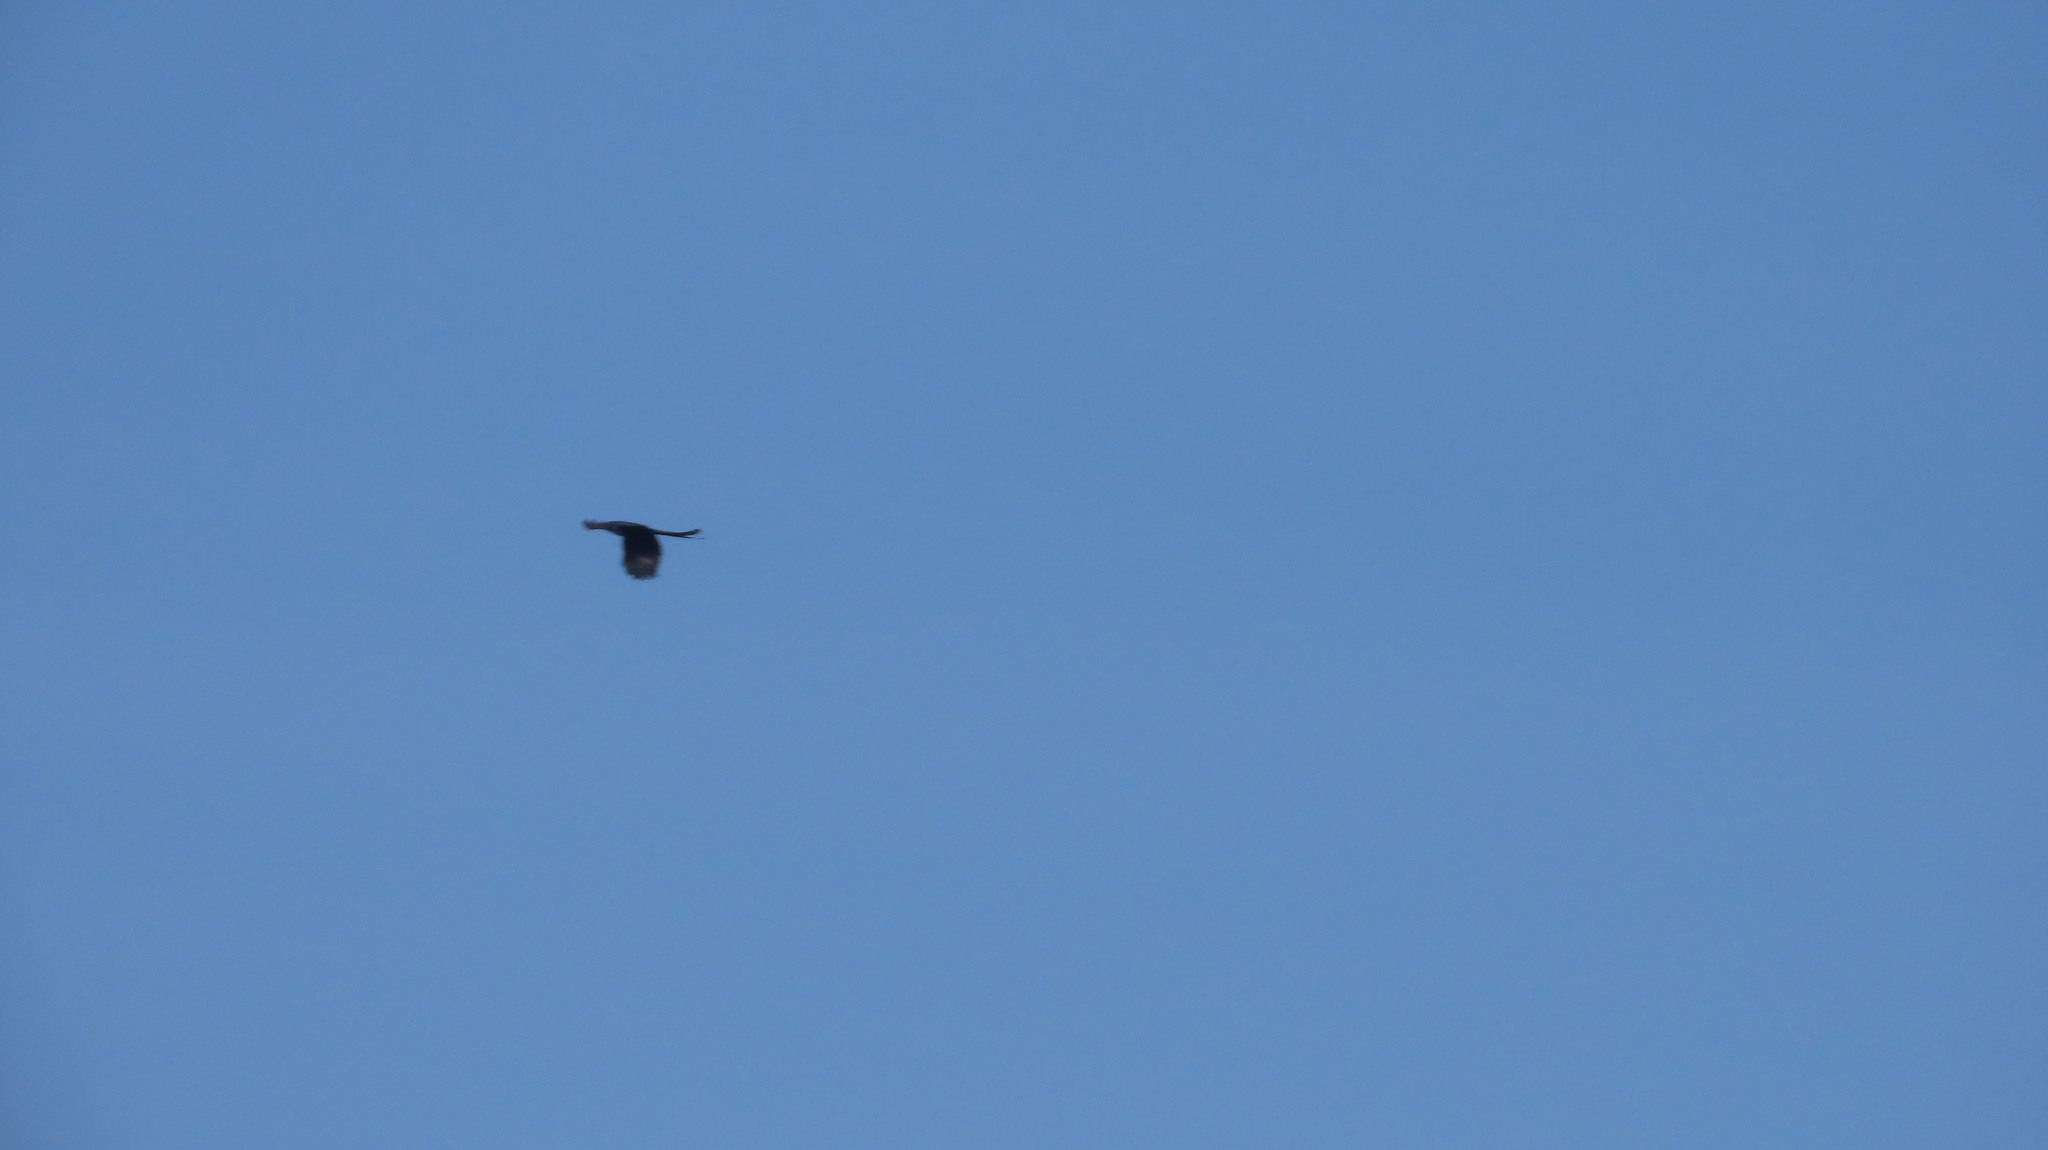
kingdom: Animalia
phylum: Chordata
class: Aves
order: Passeriformes
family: Dicruridae
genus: Dicrurus
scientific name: Dicrurus macrocercus
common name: Black drongo
